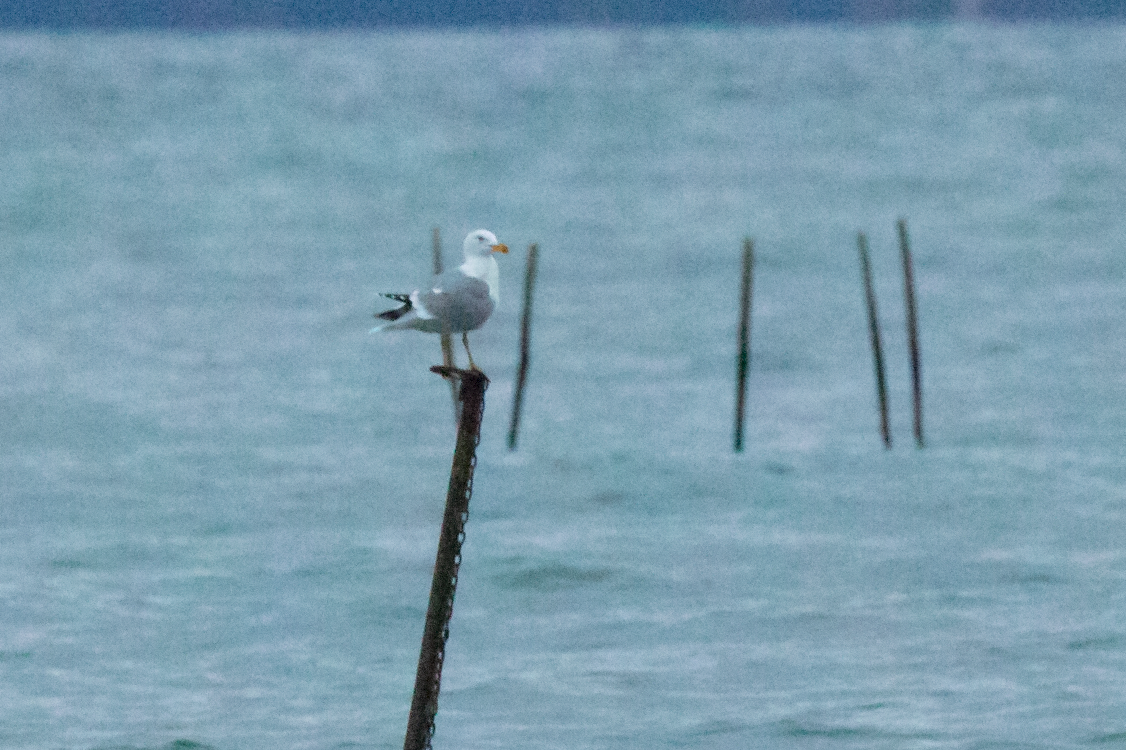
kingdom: Animalia
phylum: Chordata
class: Aves
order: Charadriiformes
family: Laridae
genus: Larus
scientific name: Larus michahellis
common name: Yellow-legged gull
